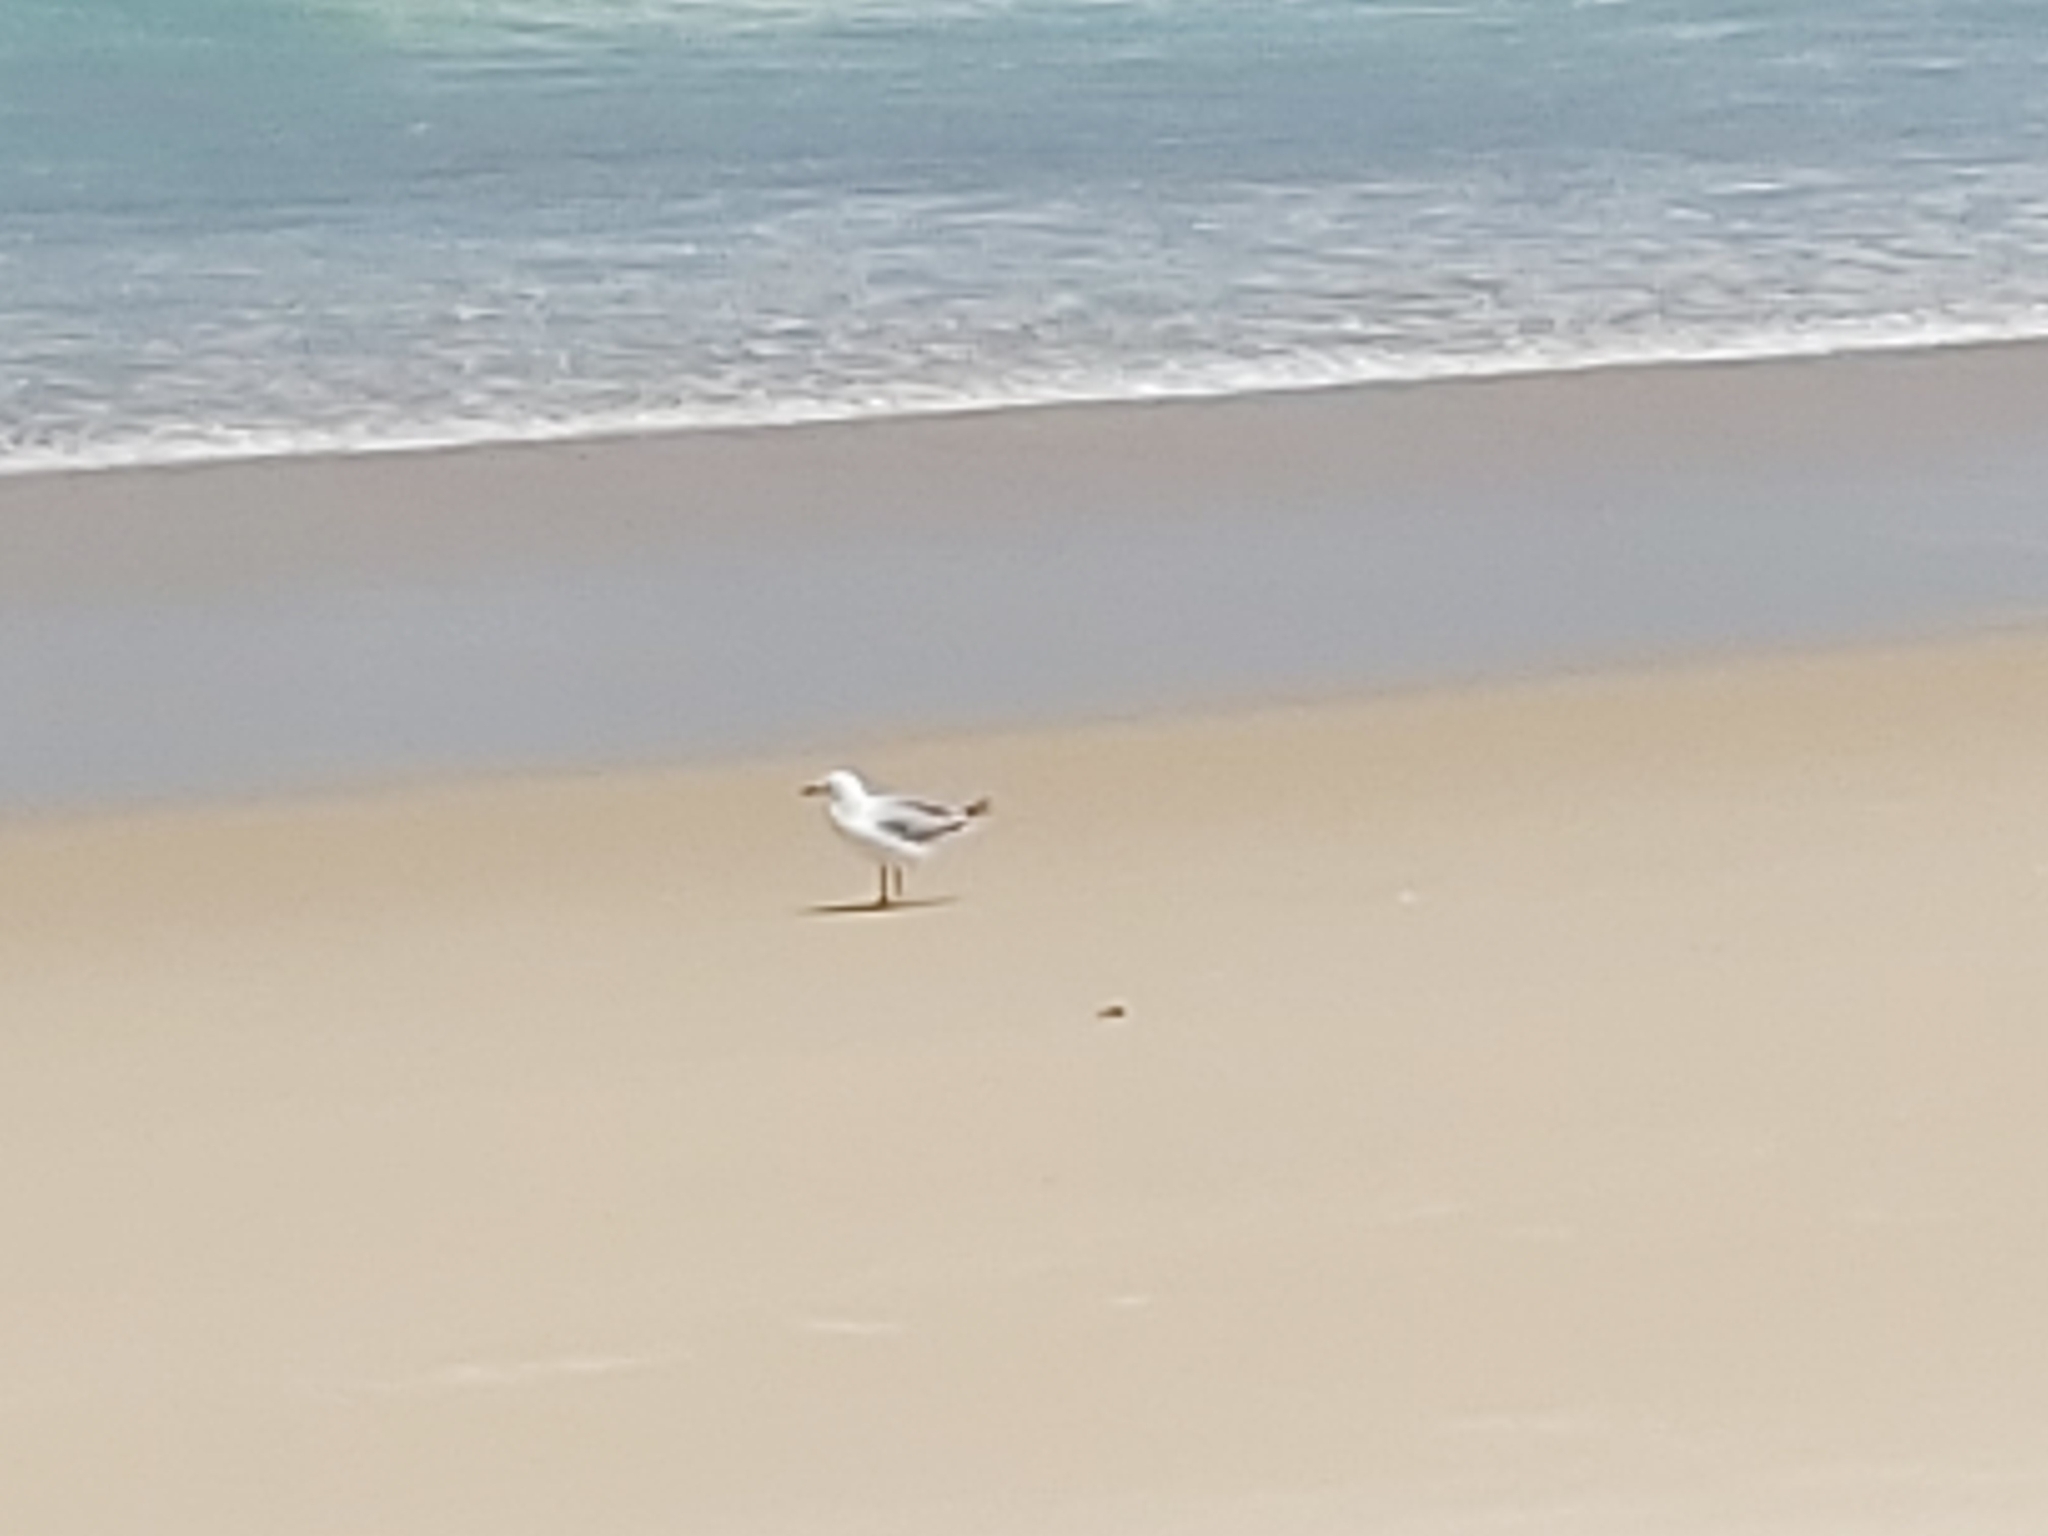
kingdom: Animalia
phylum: Chordata
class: Aves
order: Charadriiformes
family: Laridae
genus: Chroicocephalus
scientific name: Chroicocephalus novaehollandiae
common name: Silver gull
